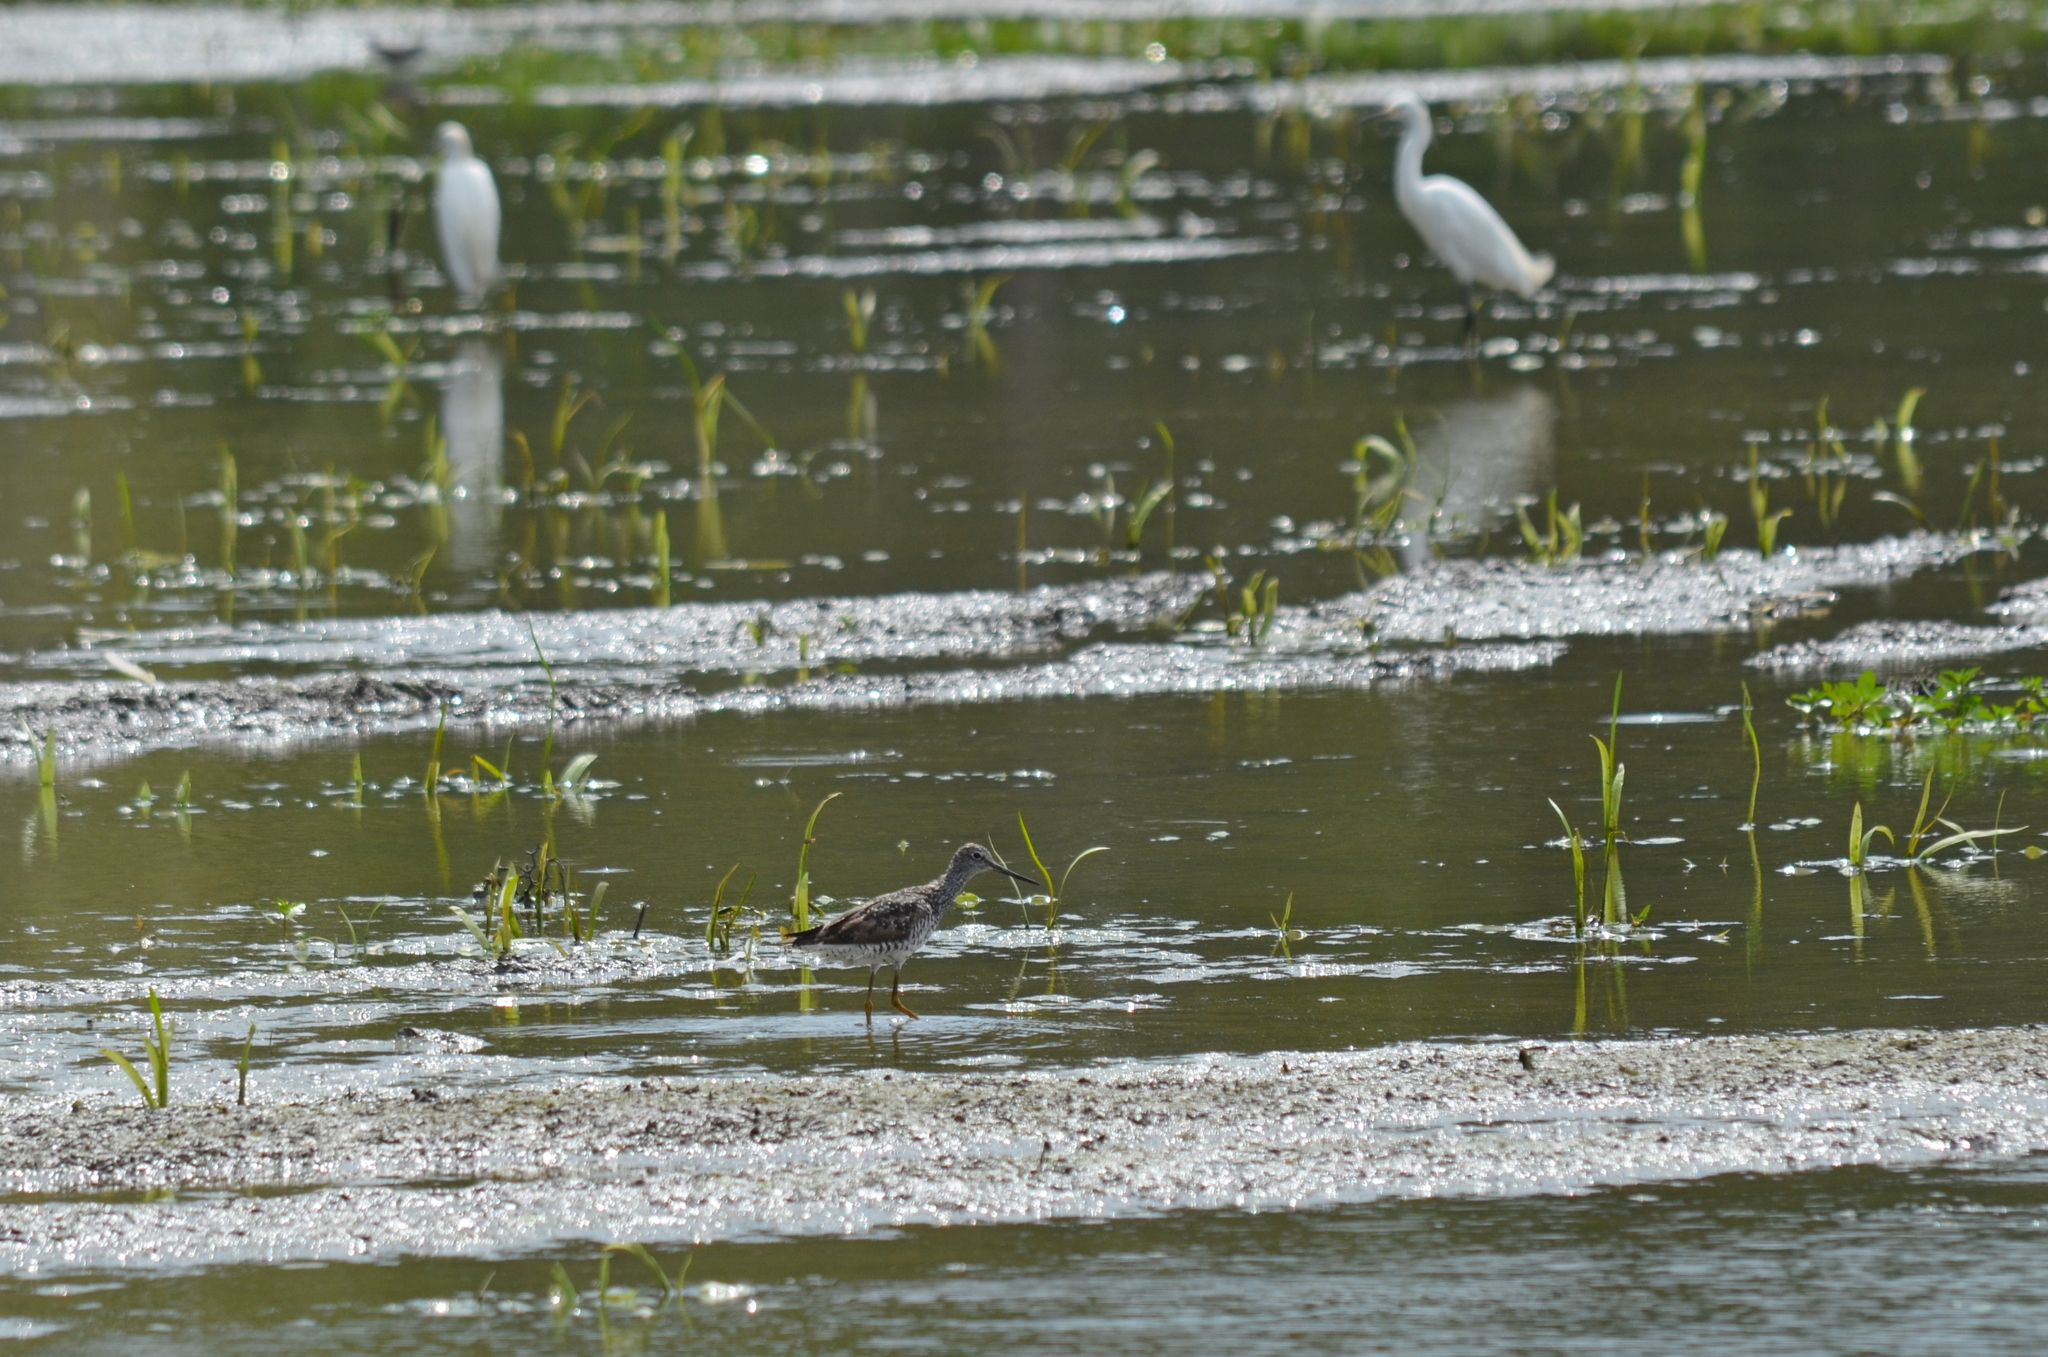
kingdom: Animalia
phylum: Chordata
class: Aves
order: Charadriiformes
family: Scolopacidae
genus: Tringa
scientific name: Tringa melanoleuca
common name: Greater yellowlegs
